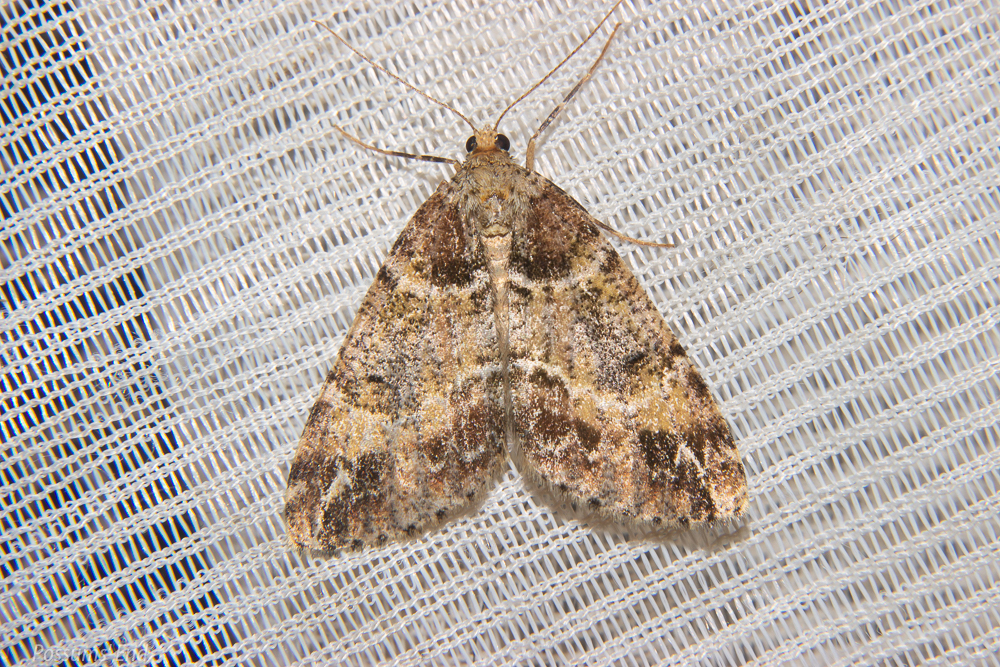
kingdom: Animalia
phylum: Arthropoda
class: Insecta
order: Lepidoptera
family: Geometridae
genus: Pseudocoremia
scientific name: Pseudocoremia productata
